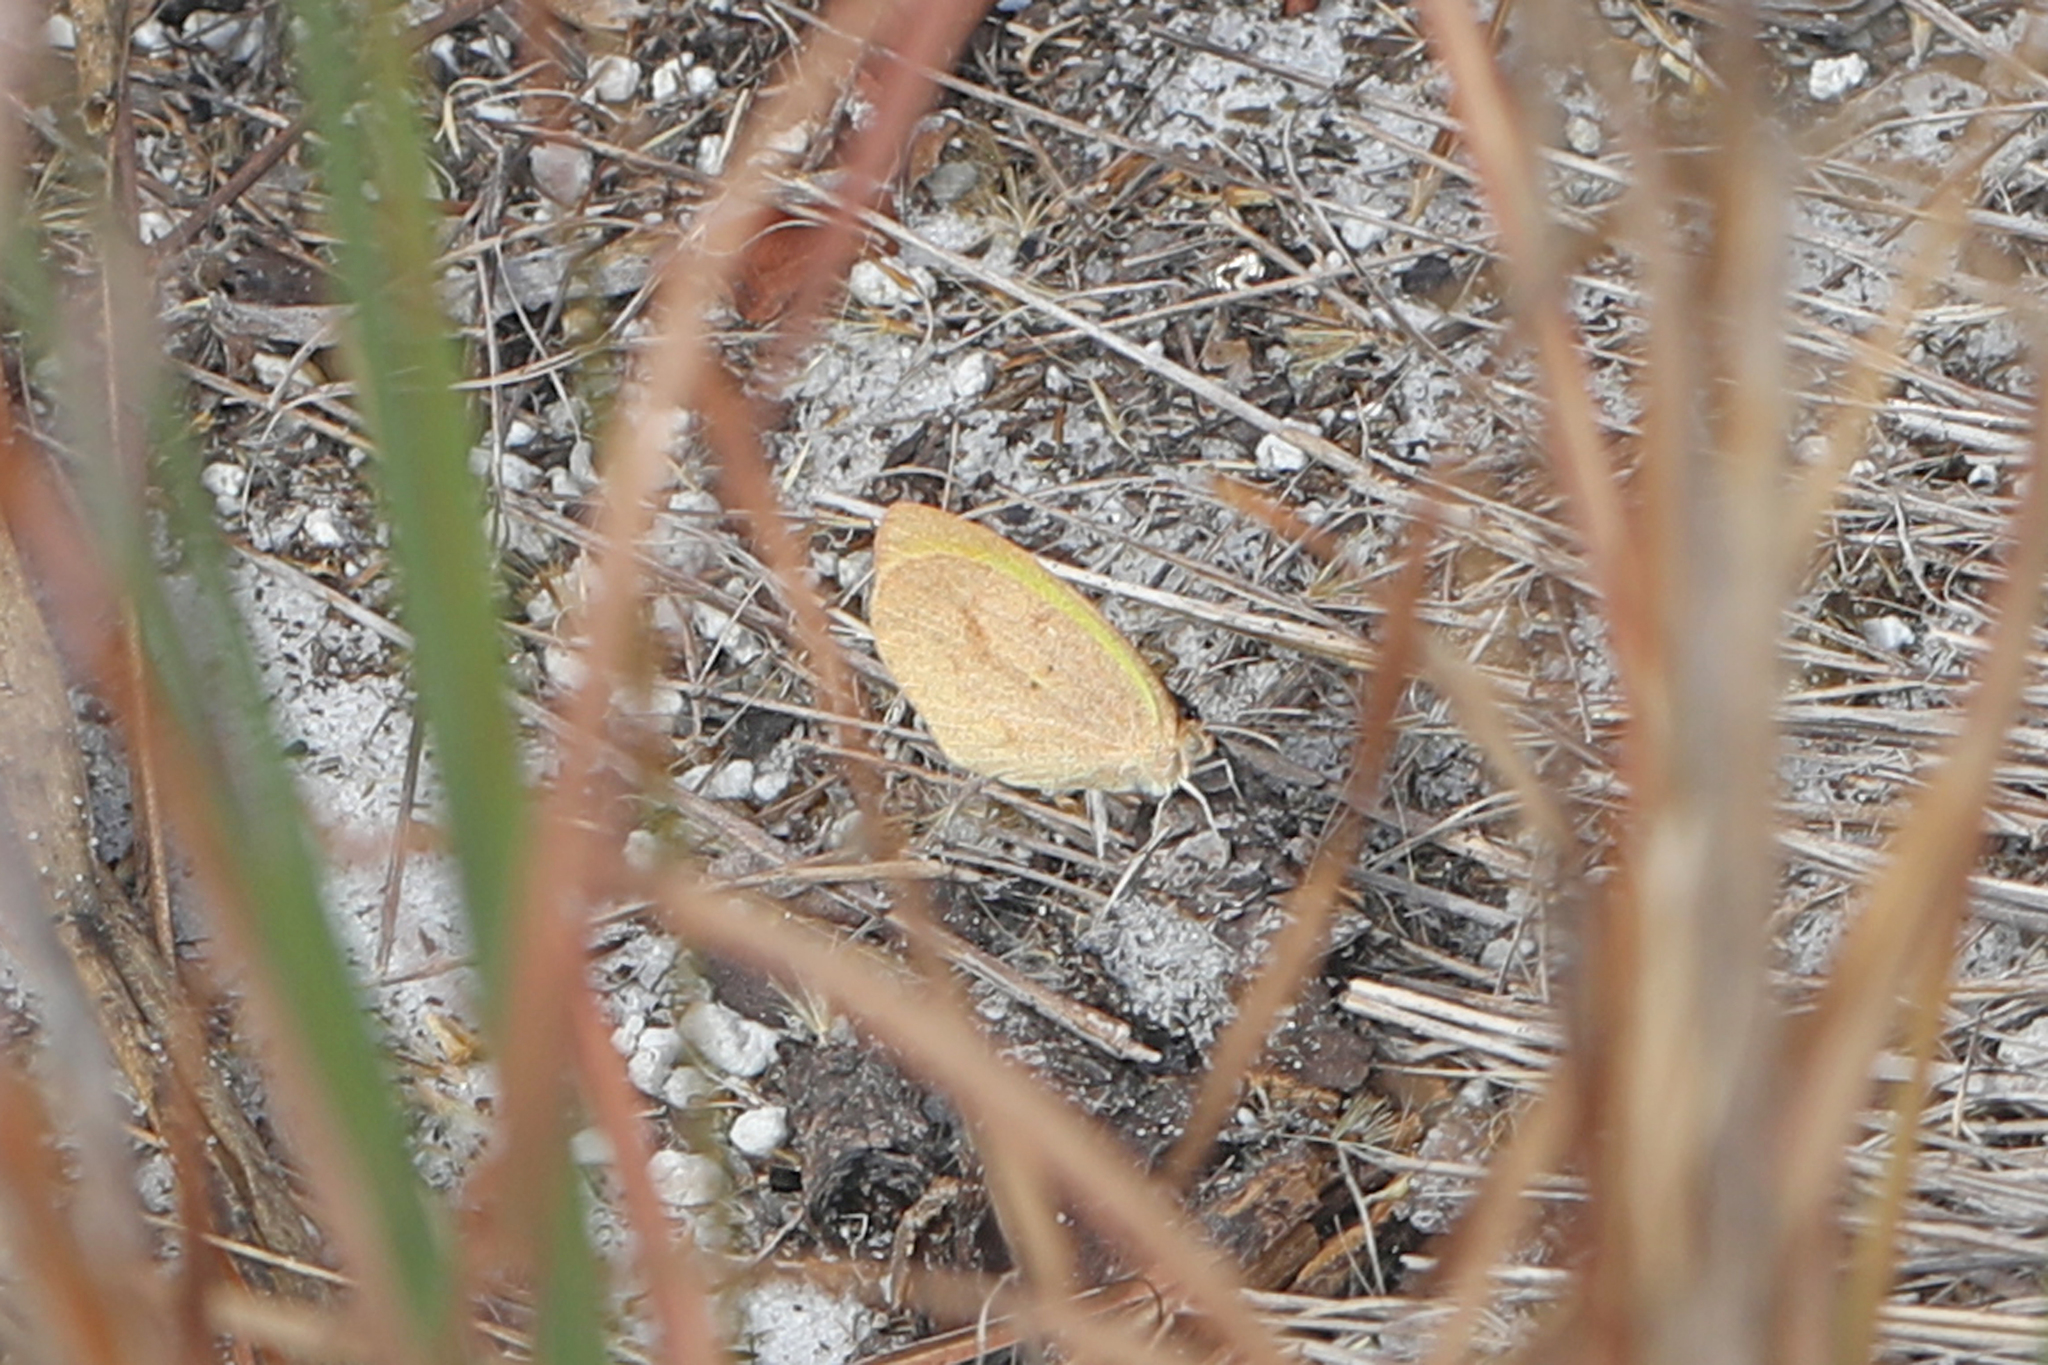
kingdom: Animalia
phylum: Arthropoda
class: Insecta
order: Lepidoptera
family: Pieridae
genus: Eurema
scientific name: Eurema daira
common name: Barred sulphur
